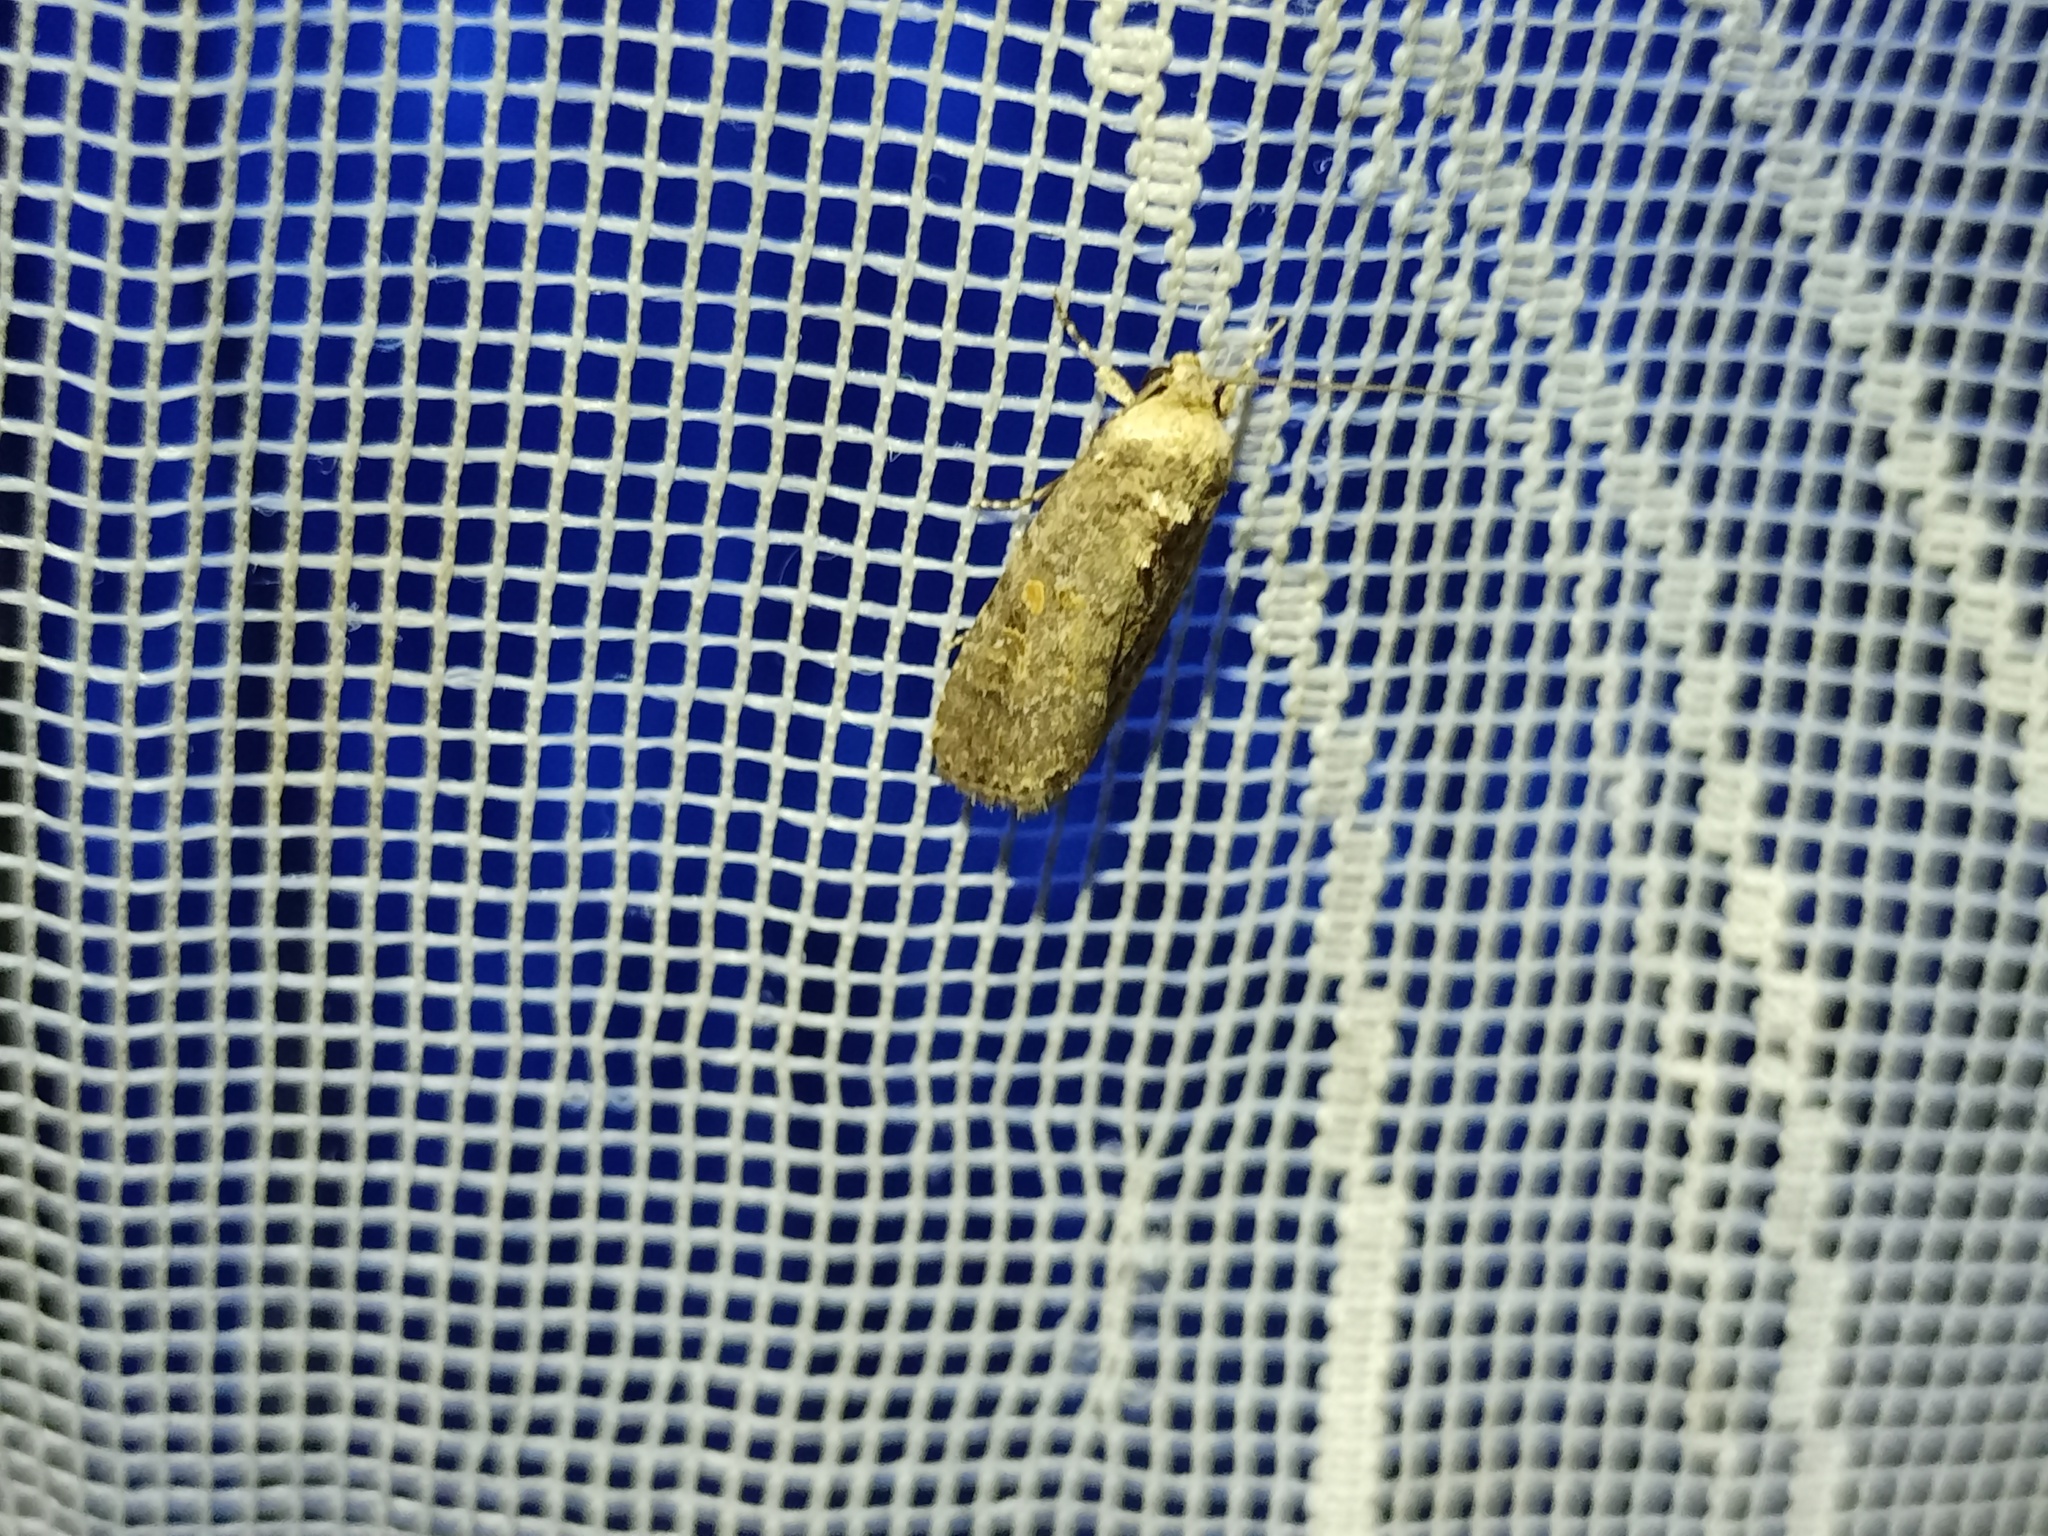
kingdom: Animalia
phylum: Arthropoda
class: Insecta
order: Lepidoptera
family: Noctuidae
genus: Spodoptera
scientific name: Spodoptera exigua
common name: Beet armyworm
